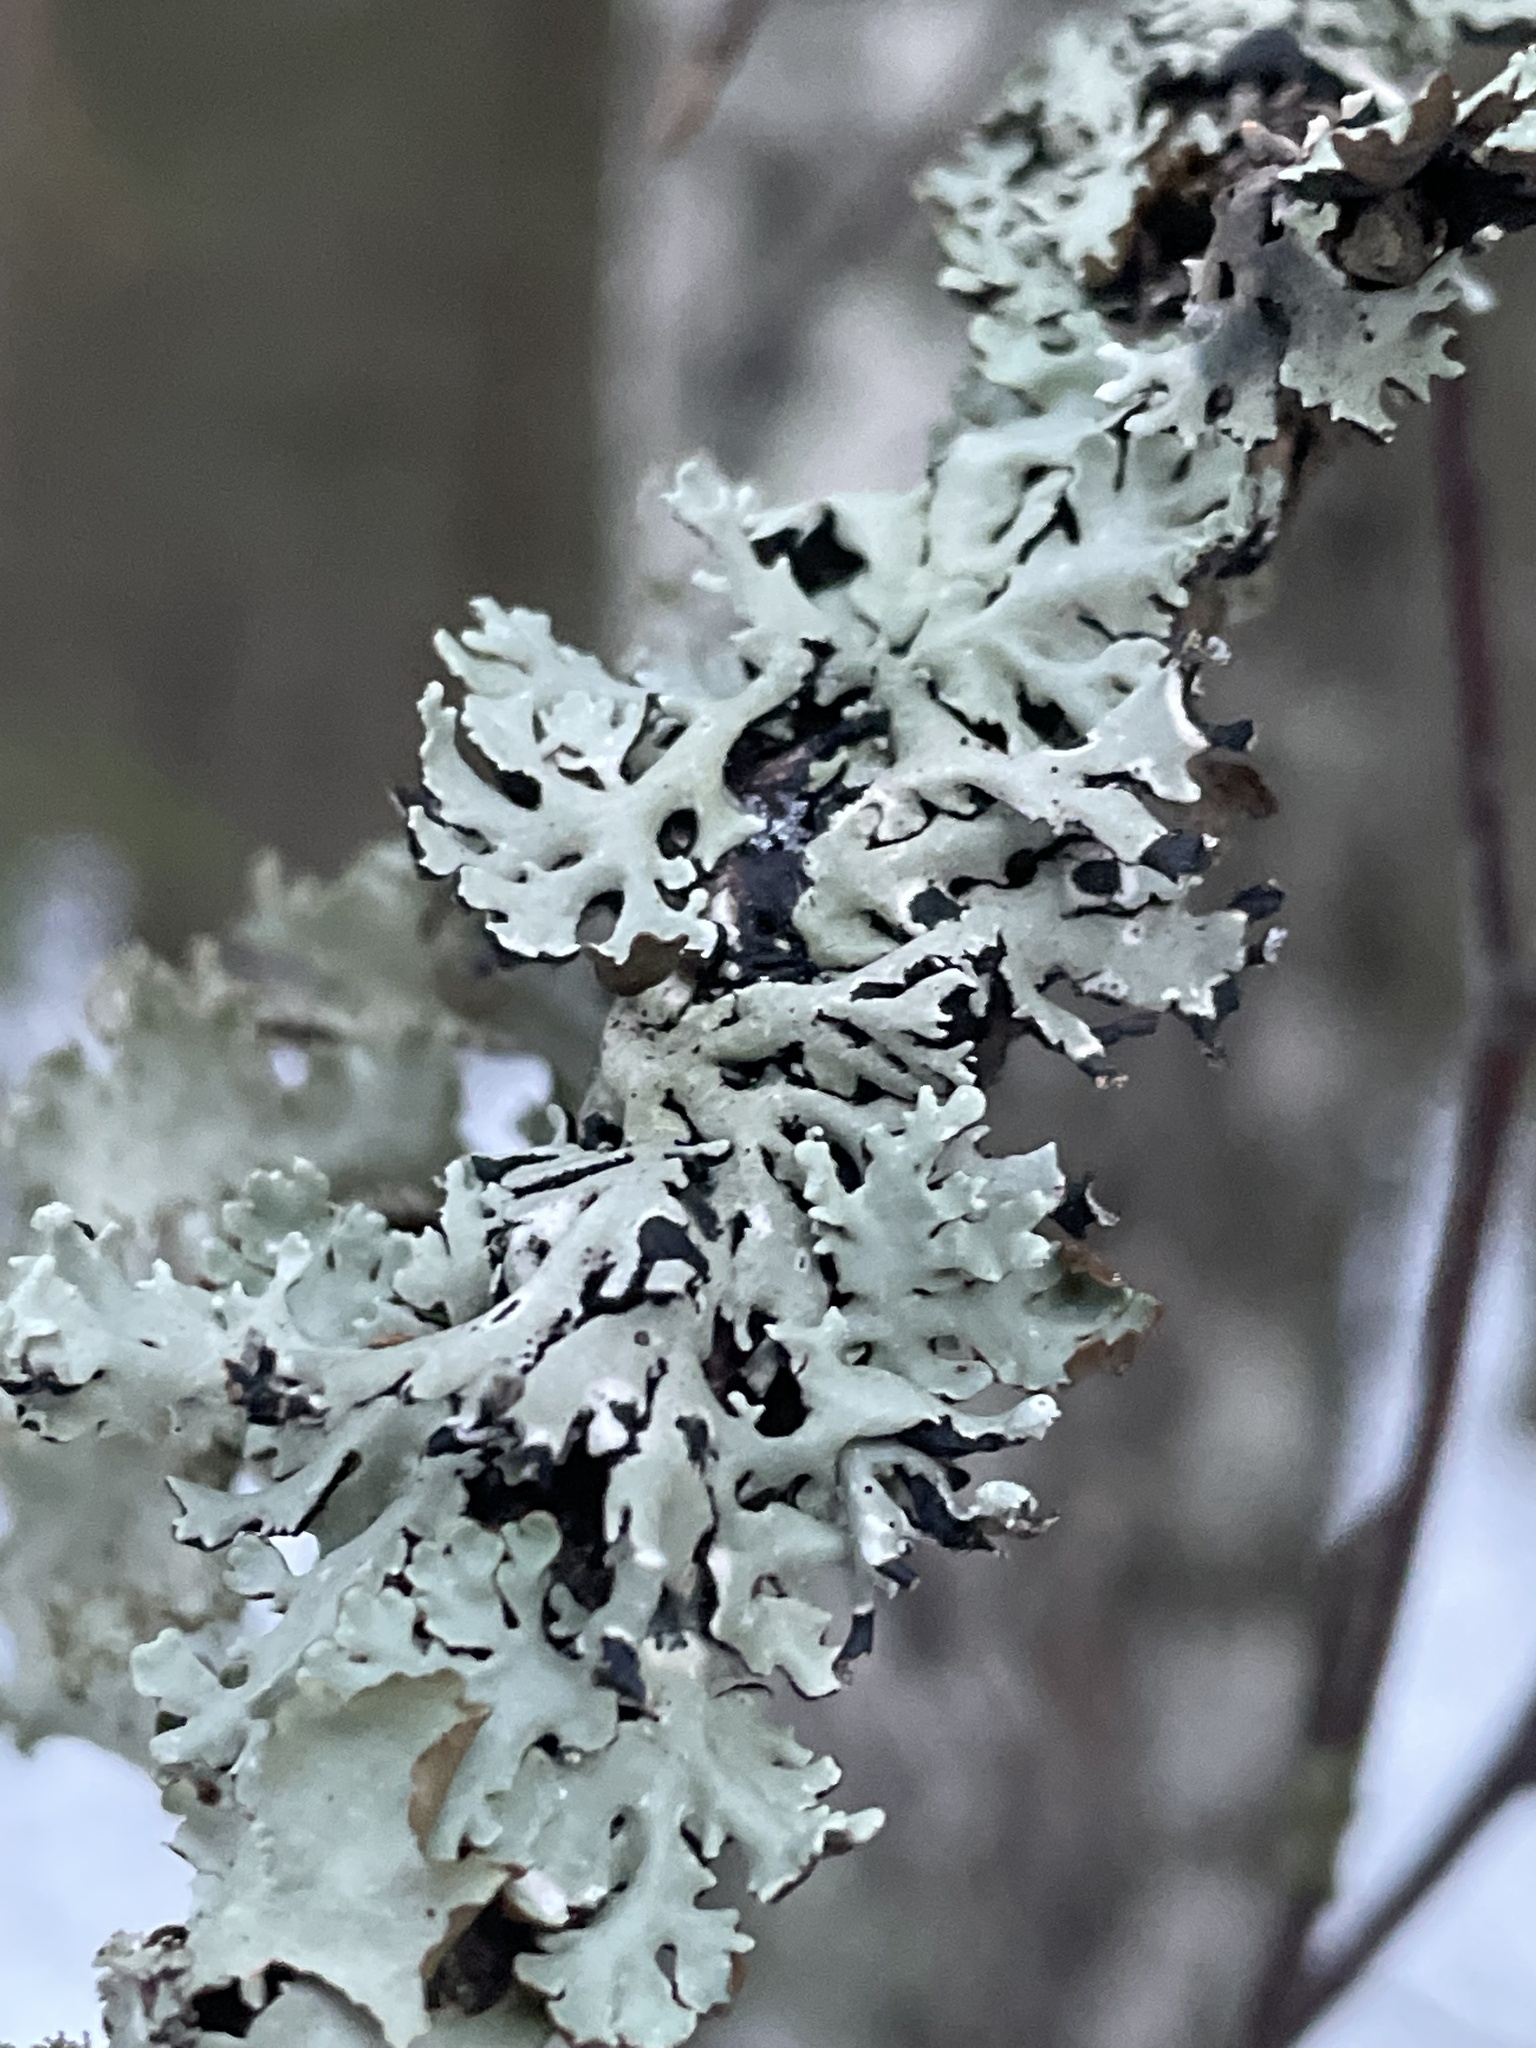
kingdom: Fungi
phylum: Ascomycota
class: Lecanoromycetes
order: Lecanorales
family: Parmeliaceae
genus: Hypogymnia
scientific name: Hypogymnia physodes
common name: Dark crottle
